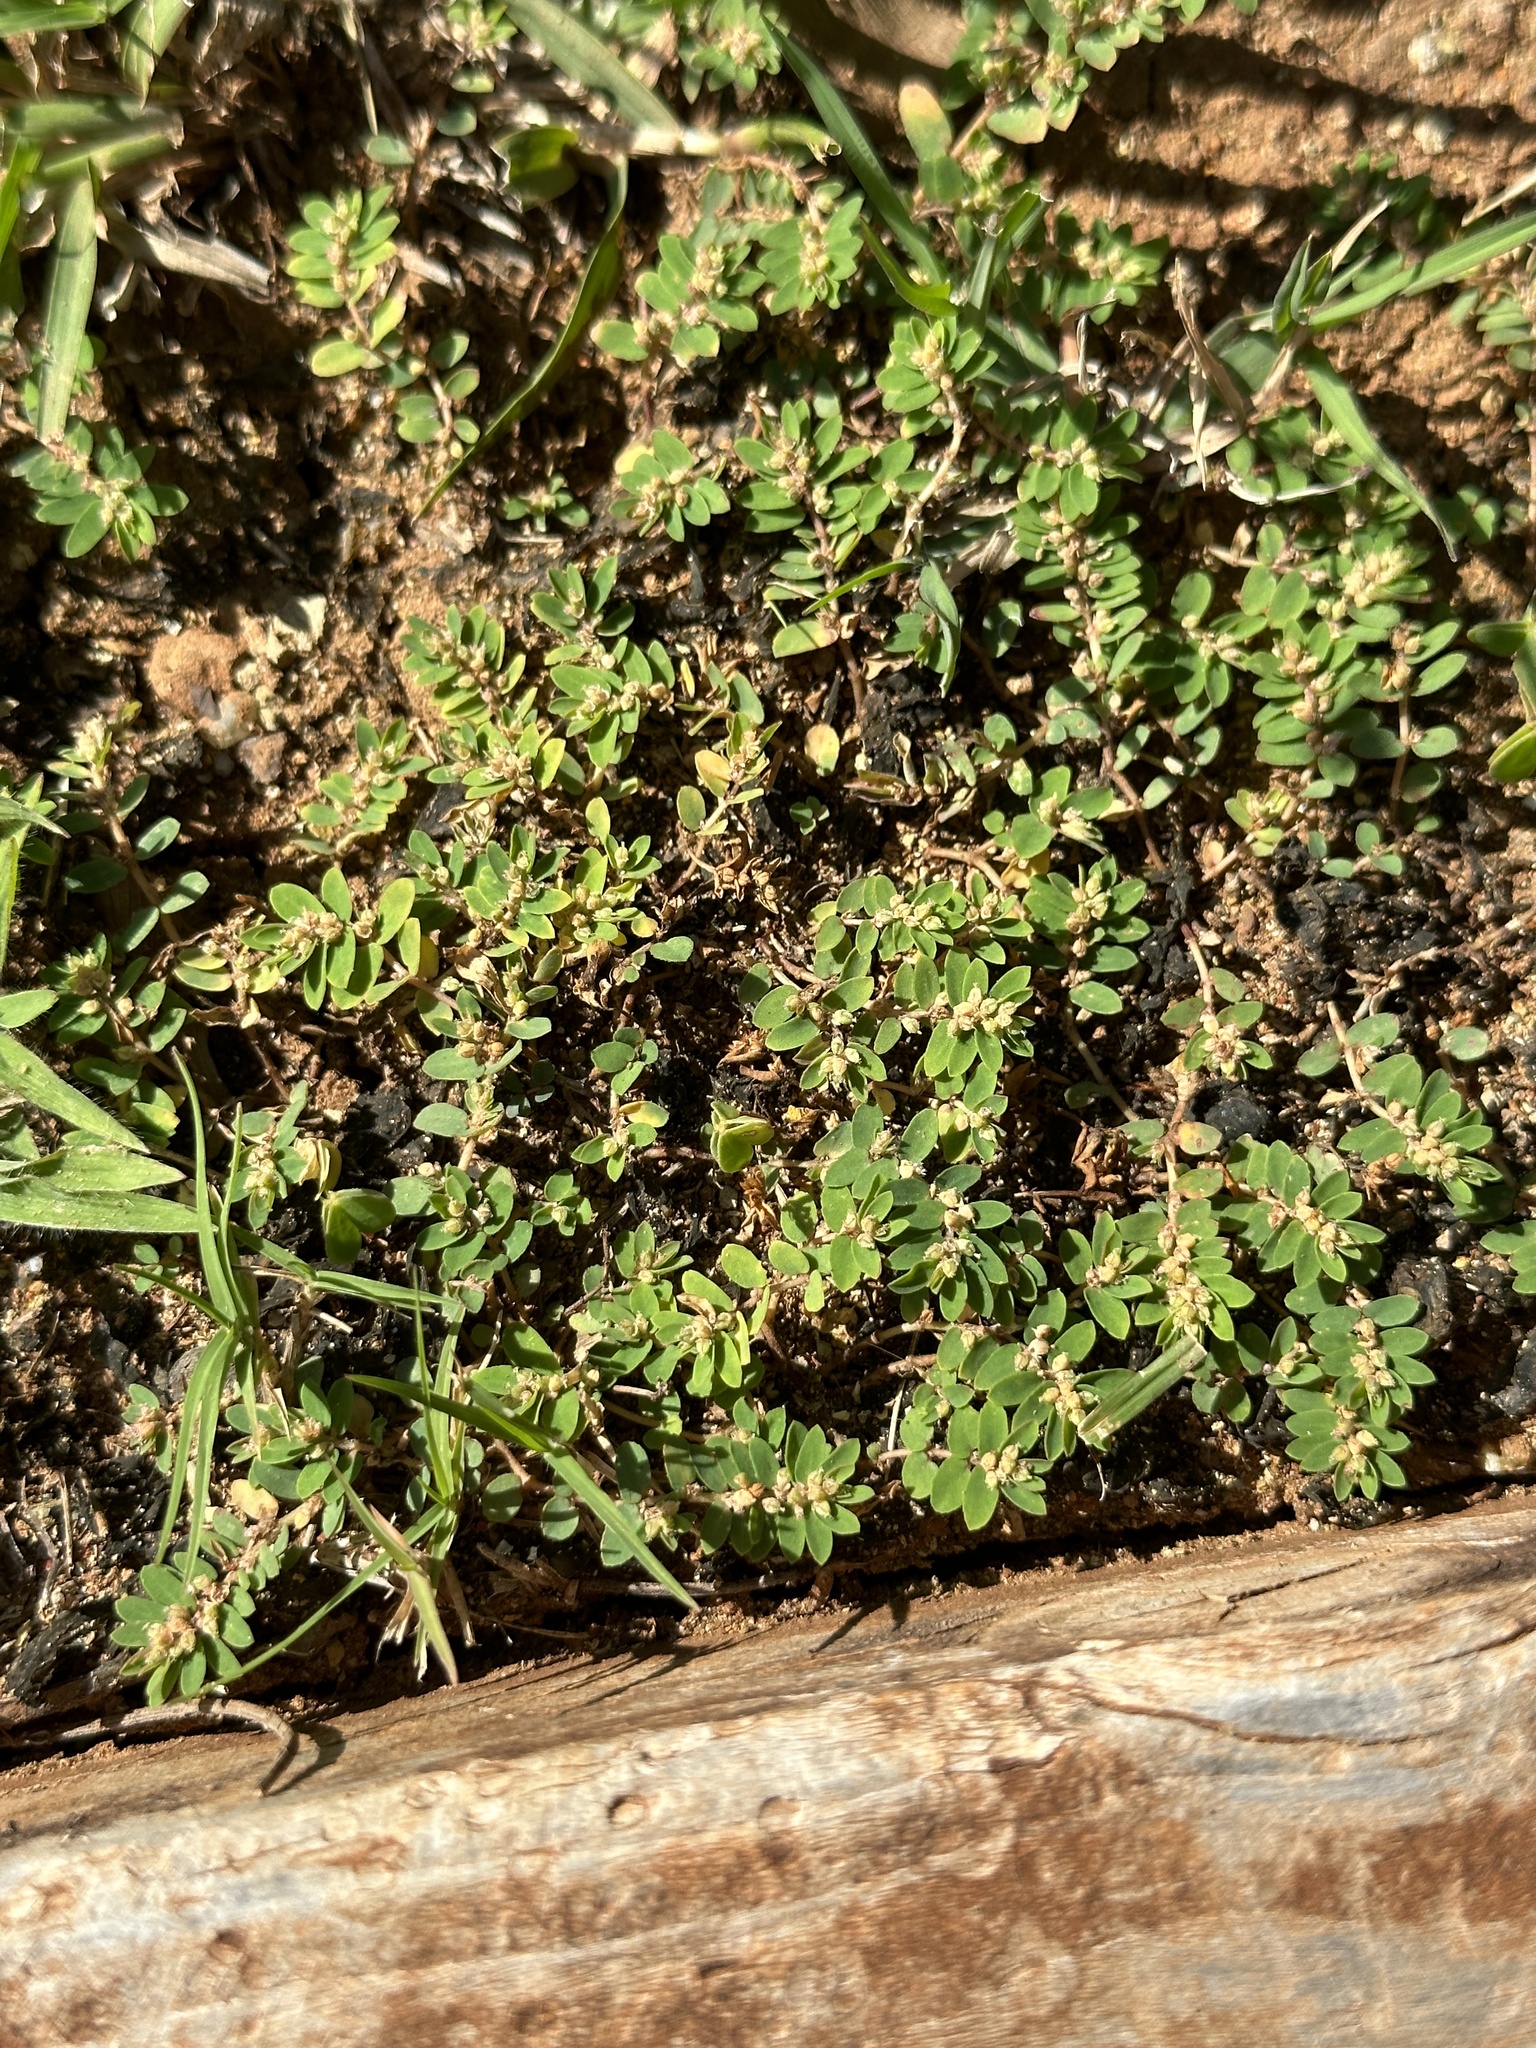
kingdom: Plantae
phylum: Tracheophyta
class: Magnoliopsida
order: Malpighiales
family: Euphorbiaceae
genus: Euphorbia
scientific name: Euphorbia thymifolia
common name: Gulf sandmat
